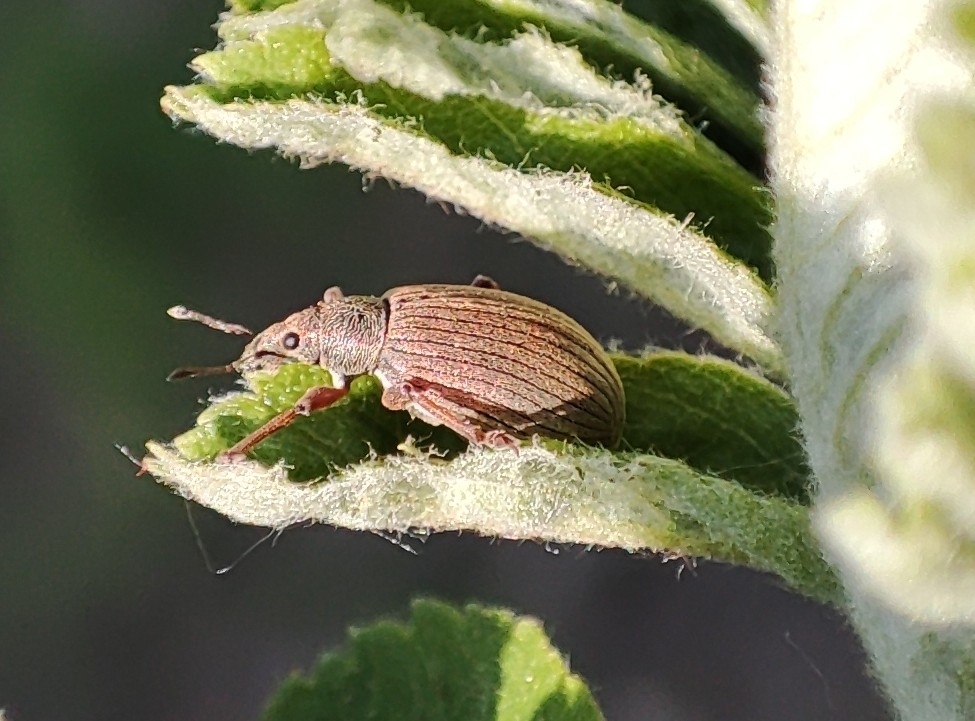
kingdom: Animalia
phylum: Arthropoda
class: Insecta
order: Coleoptera
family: Curculionidae
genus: Polydrusus
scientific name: Polydrusus mollis
